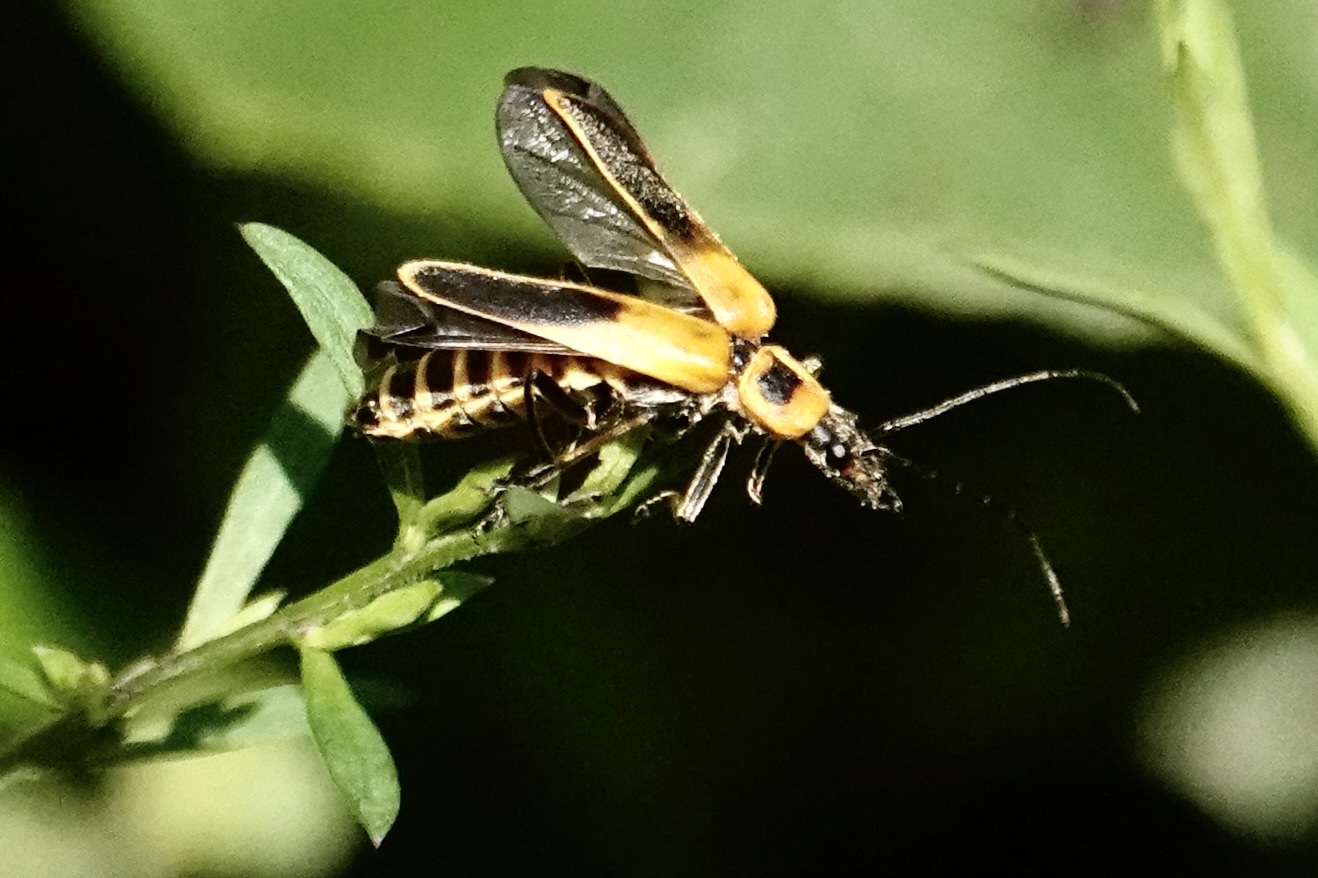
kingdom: Animalia
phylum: Arthropoda
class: Insecta
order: Coleoptera
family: Cantharidae
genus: Chauliognathus
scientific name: Chauliognathus pensylvanicus
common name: Goldenrod soldier beetle
